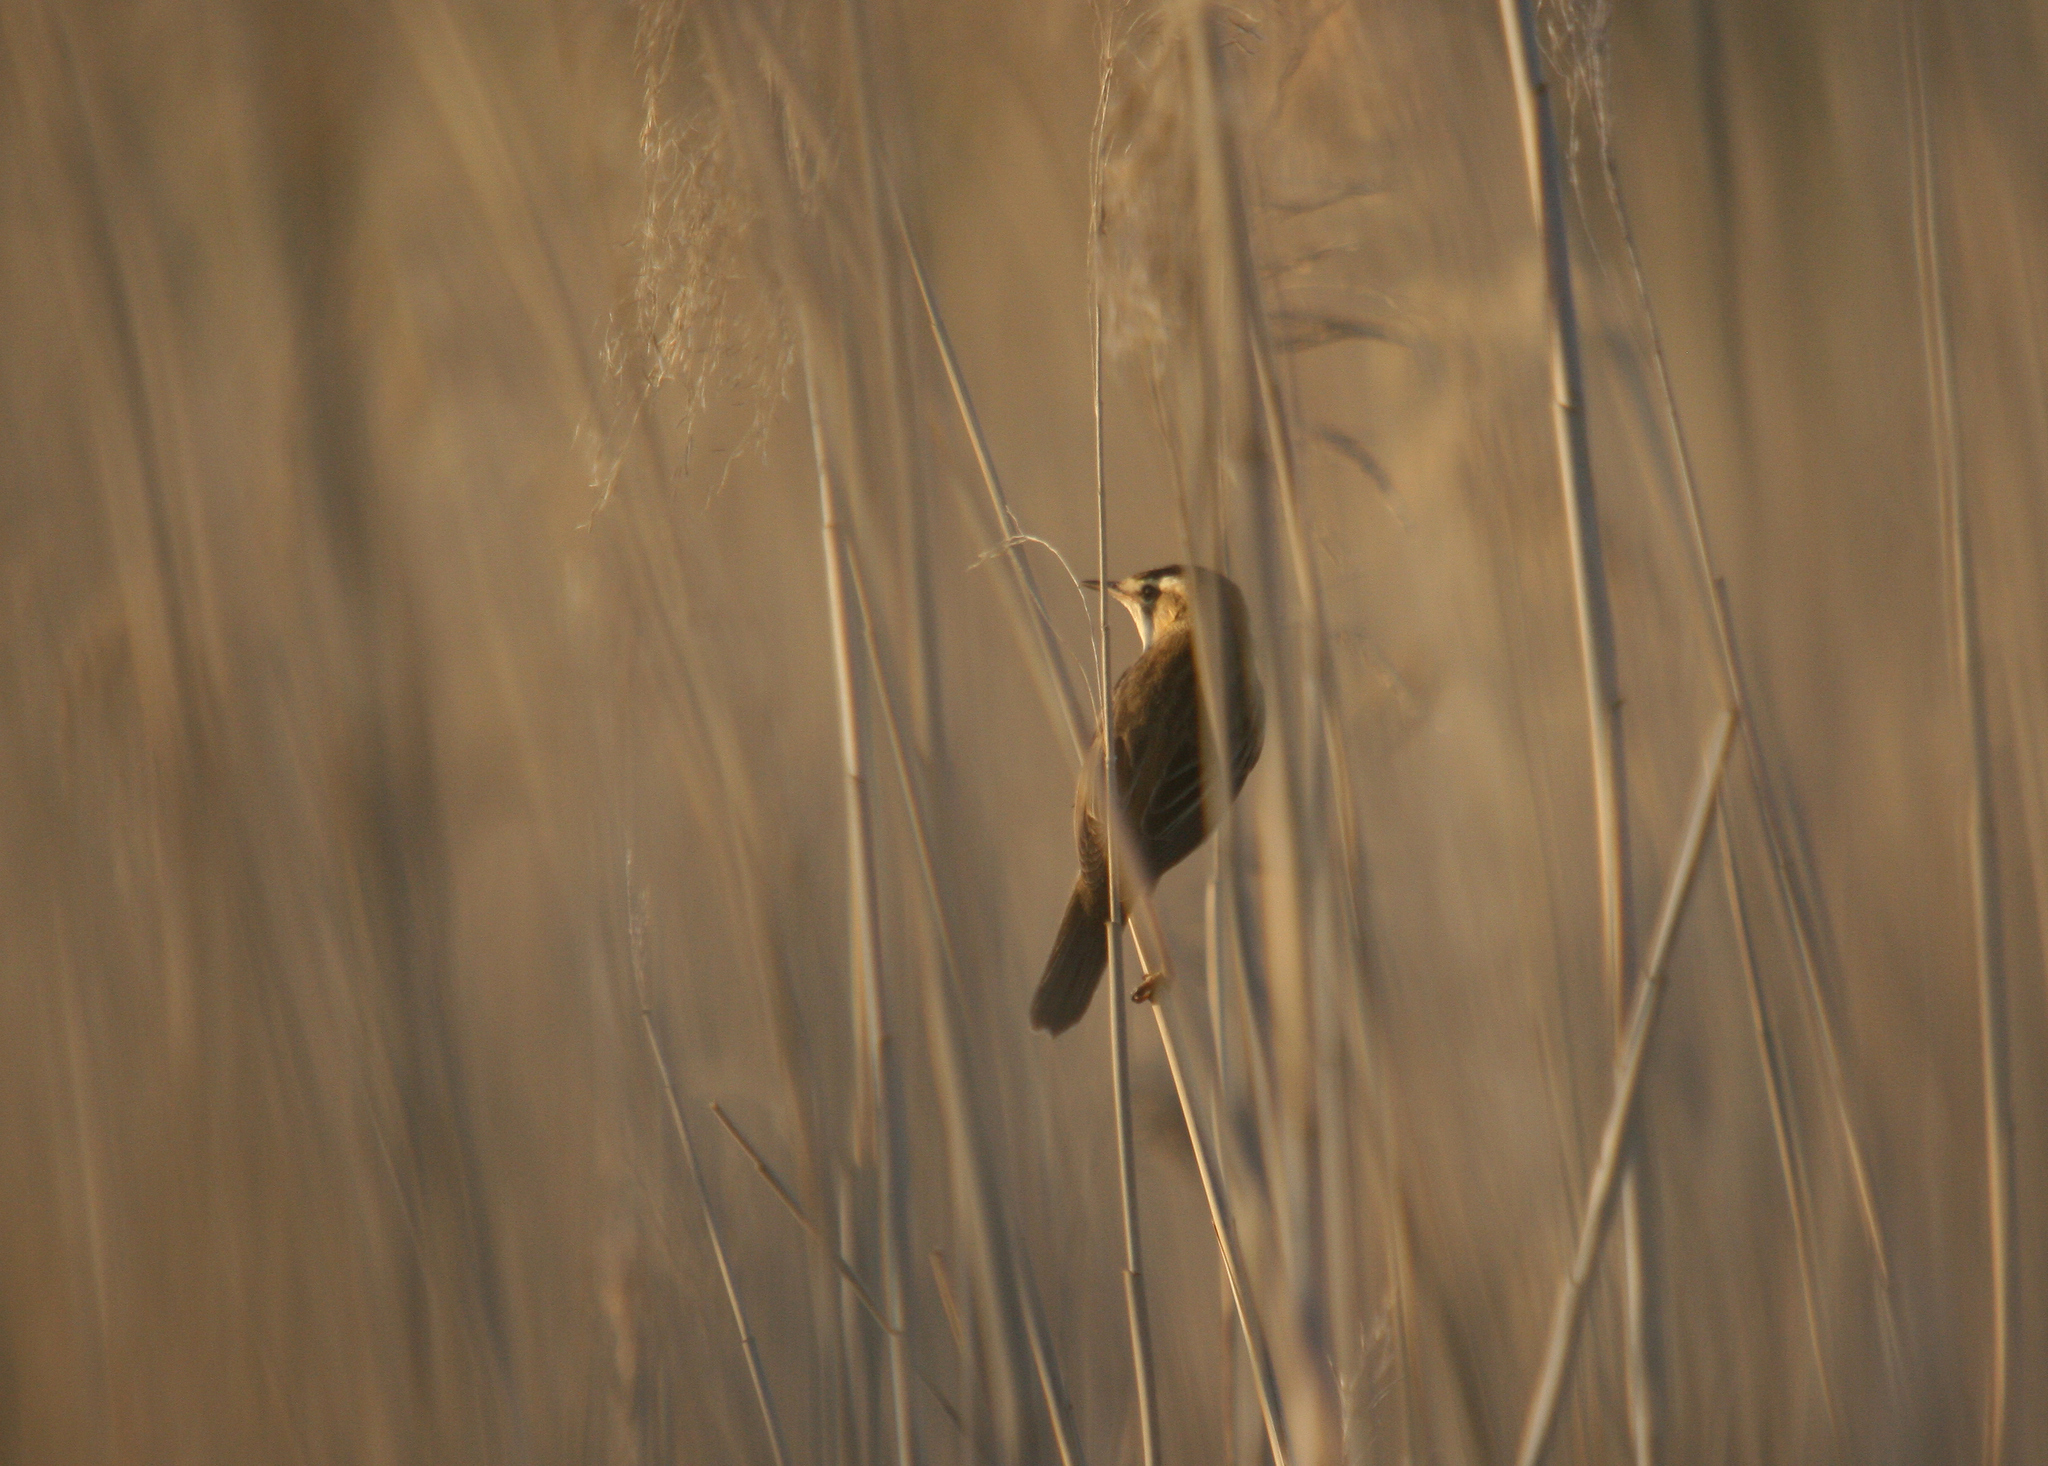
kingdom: Animalia
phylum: Chordata
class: Aves
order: Passeriformes
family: Acrocephalidae
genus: Acrocephalus
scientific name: Acrocephalus schoenobaenus
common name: Sedge warbler
